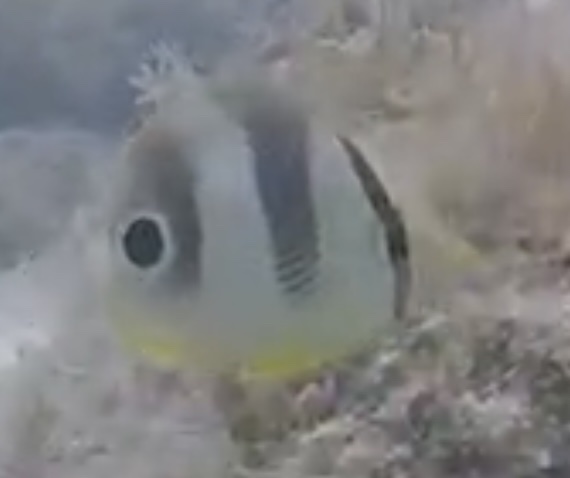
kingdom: Animalia
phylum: Chordata
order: Perciformes
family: Chaetodontidae
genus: Chaetodon
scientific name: Chaetodon capistratus
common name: Kete
